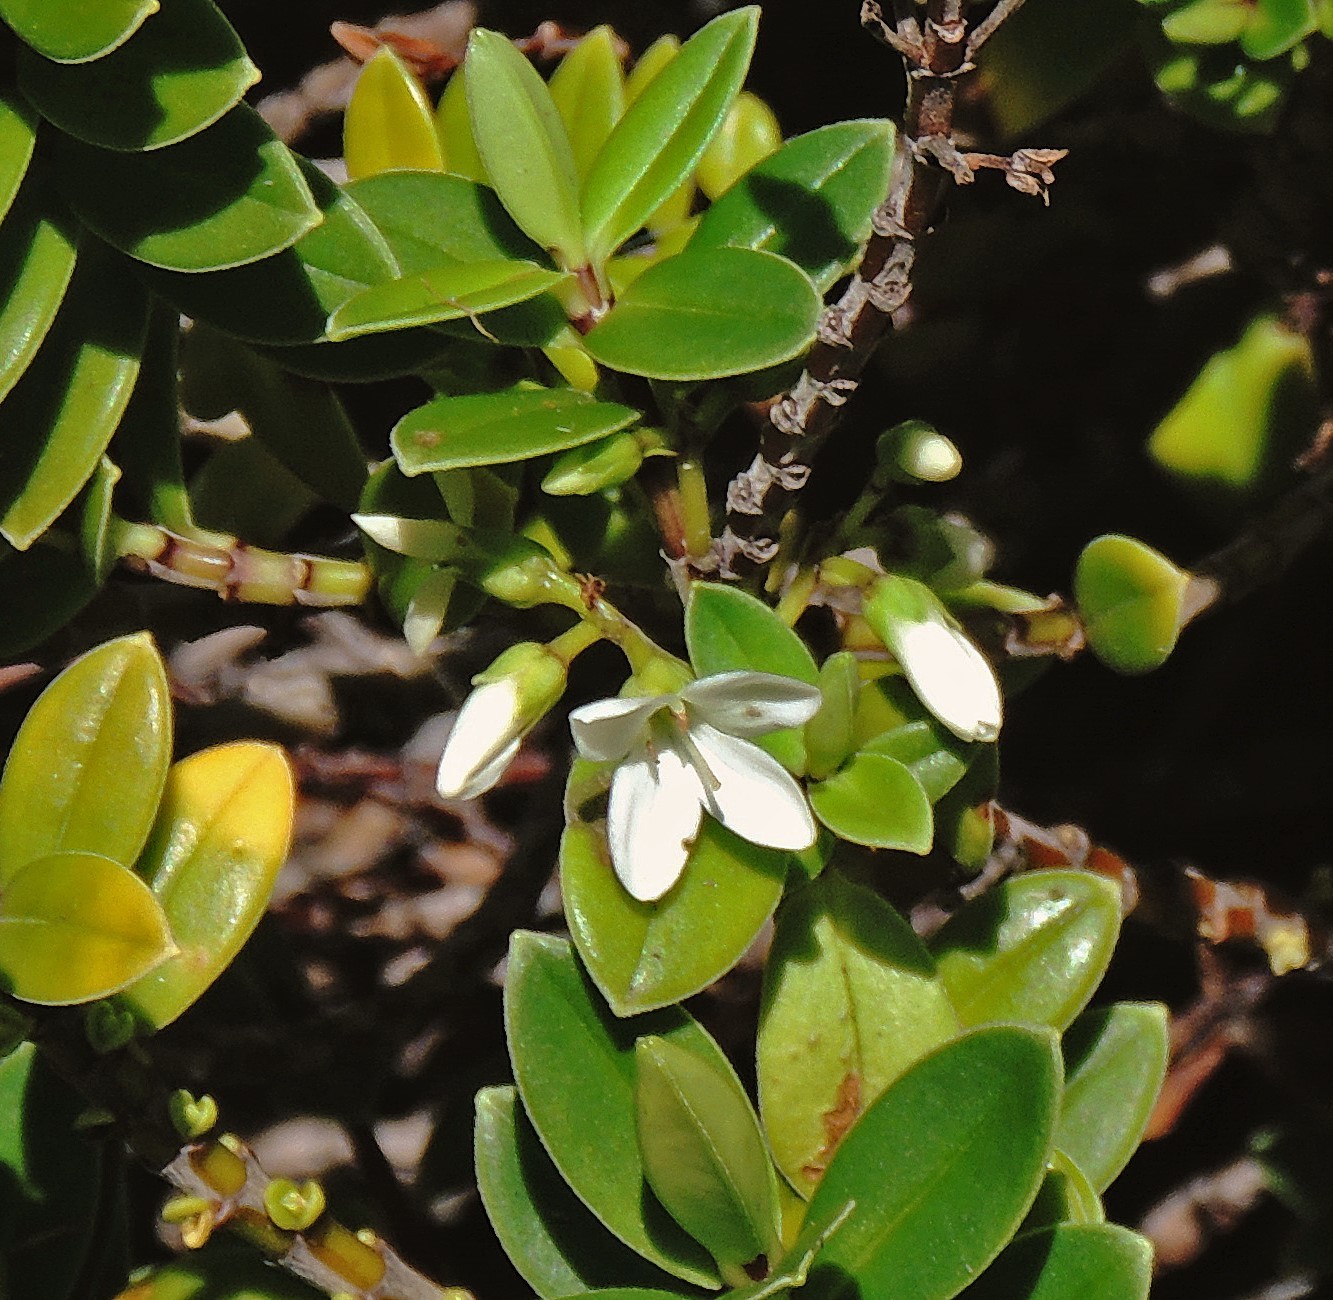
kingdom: Plantae
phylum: Tracheophyta
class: Magnoliopsida
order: Lamiales
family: Plantaginaceae
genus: Veronica
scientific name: Veronica elliptica
